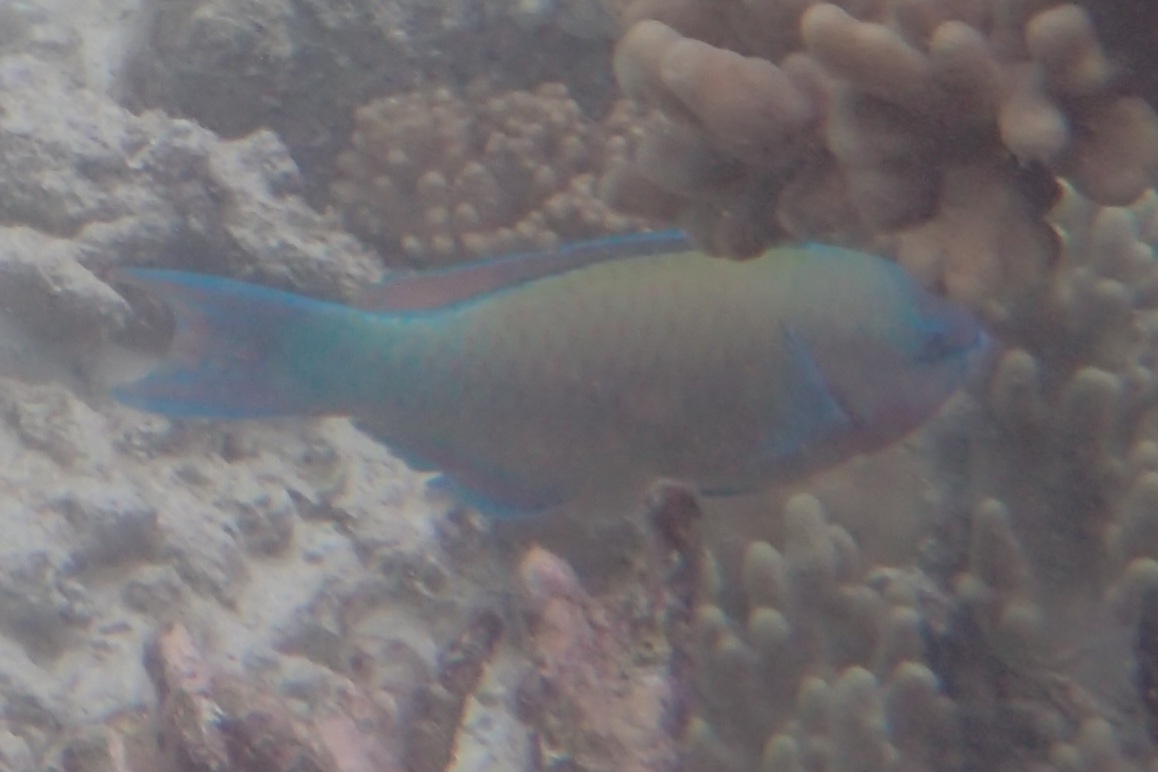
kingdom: Animalia
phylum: Chordata
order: Perciformes
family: Scaridae
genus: Scarus
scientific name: Scarus psittacus
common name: Palenose parrotfish
